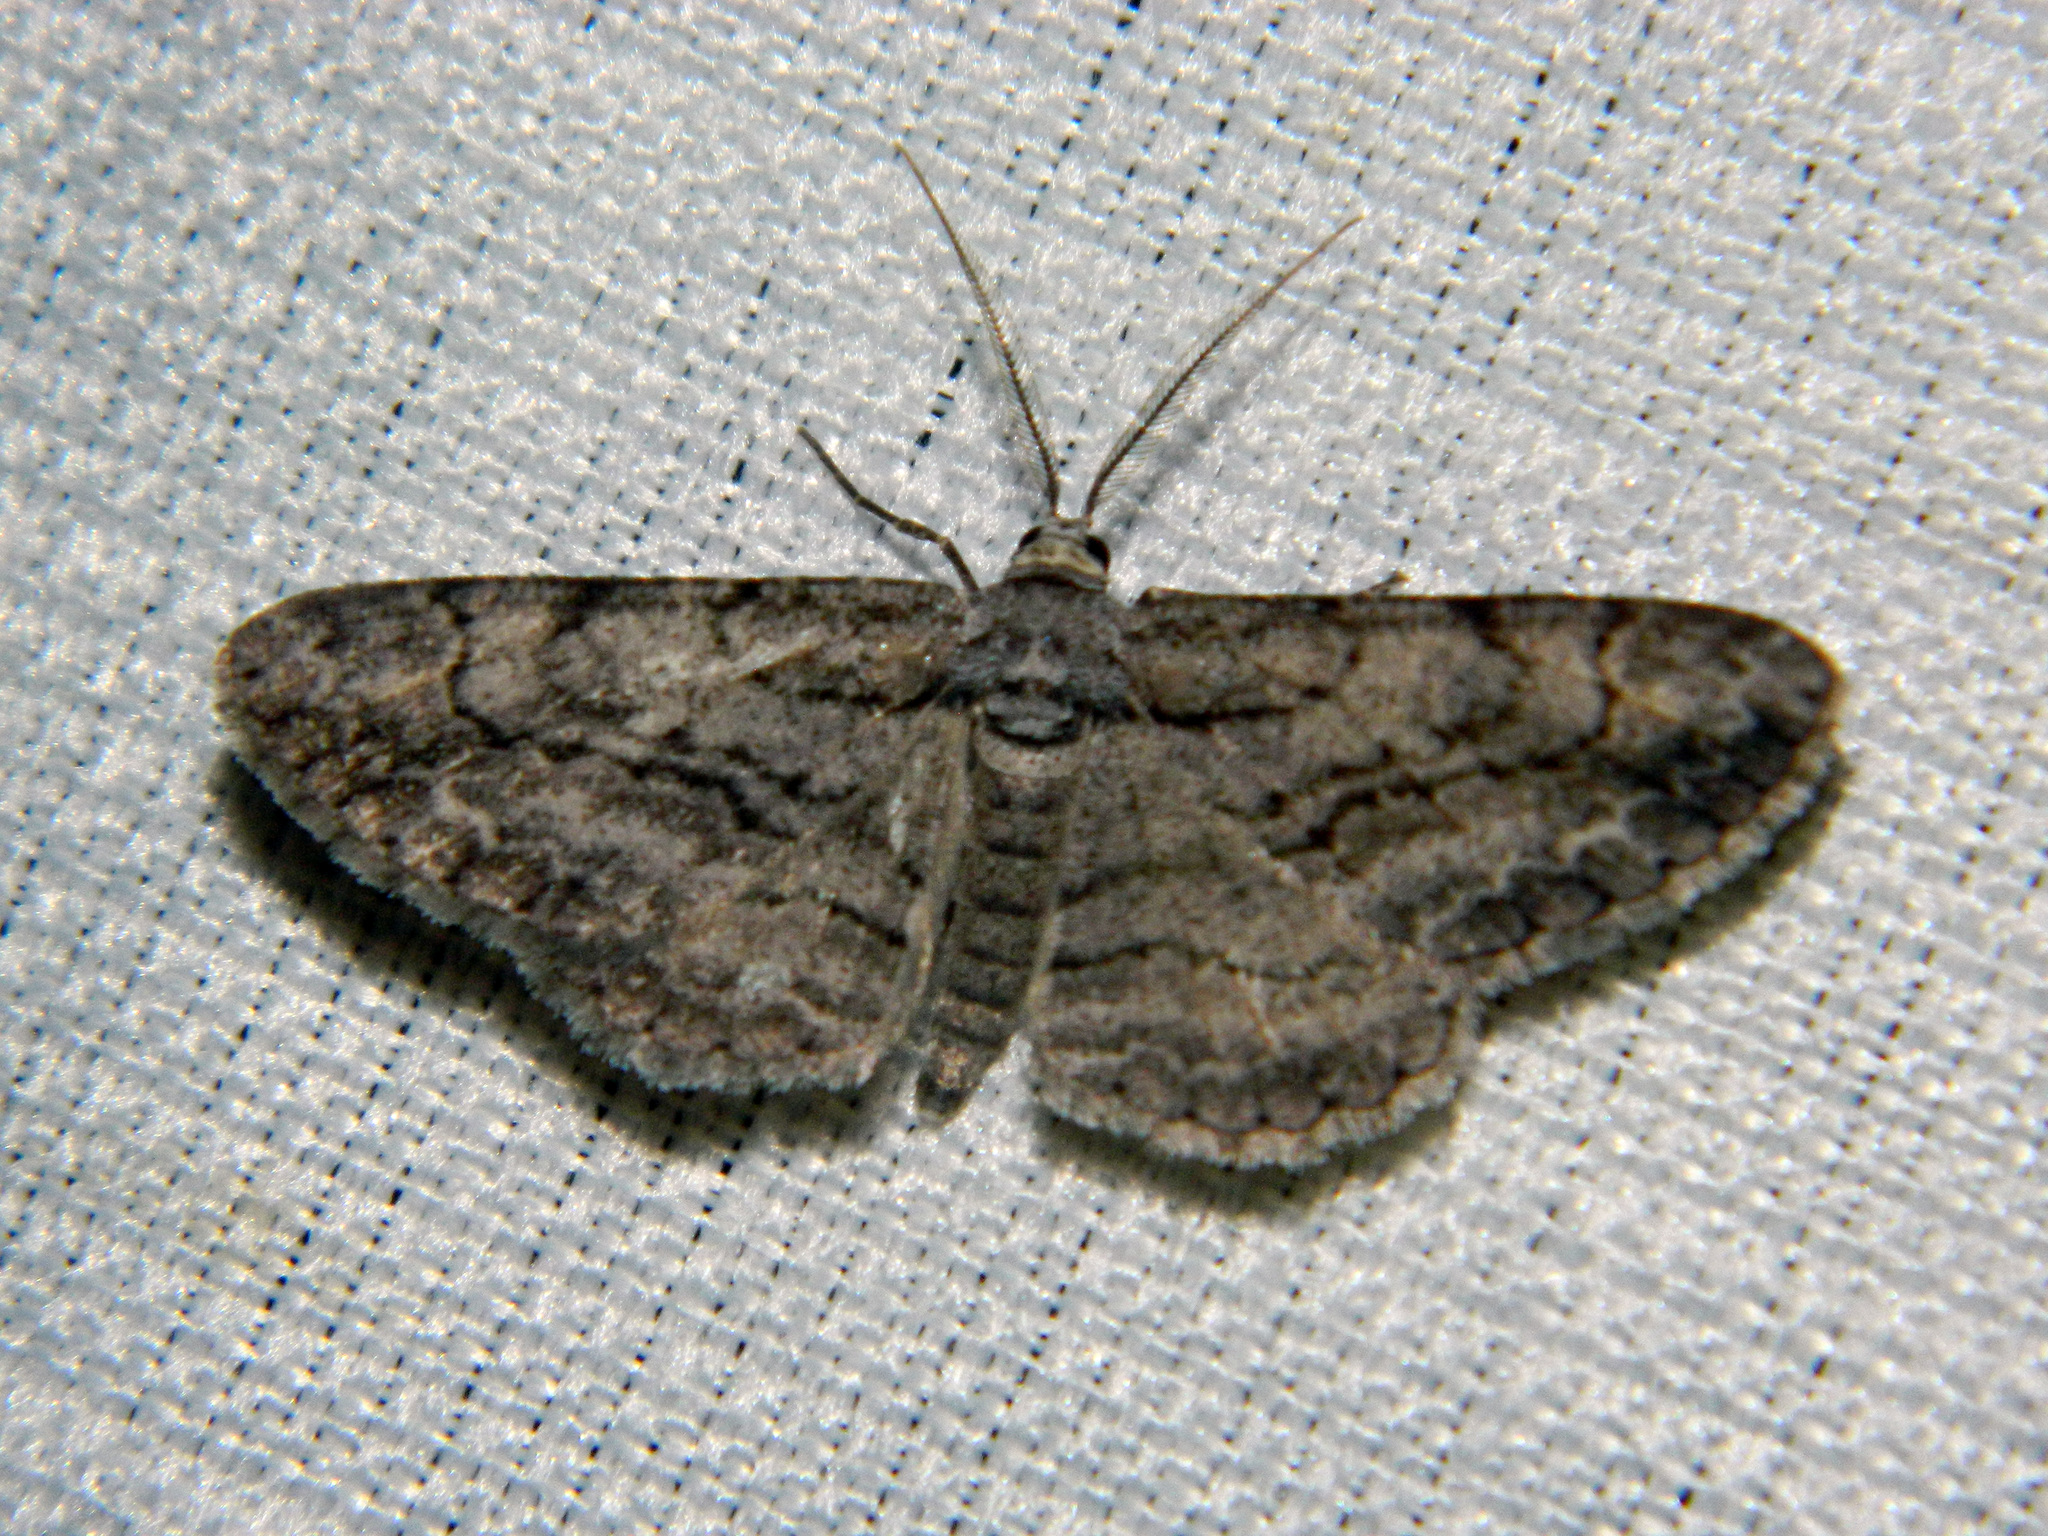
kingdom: Animalia
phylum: Arthropoda
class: Insecta
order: Lepidoptera
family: Geometridae
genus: Anavitrinella
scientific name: Anavitrinella pampinaria
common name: Common gray
